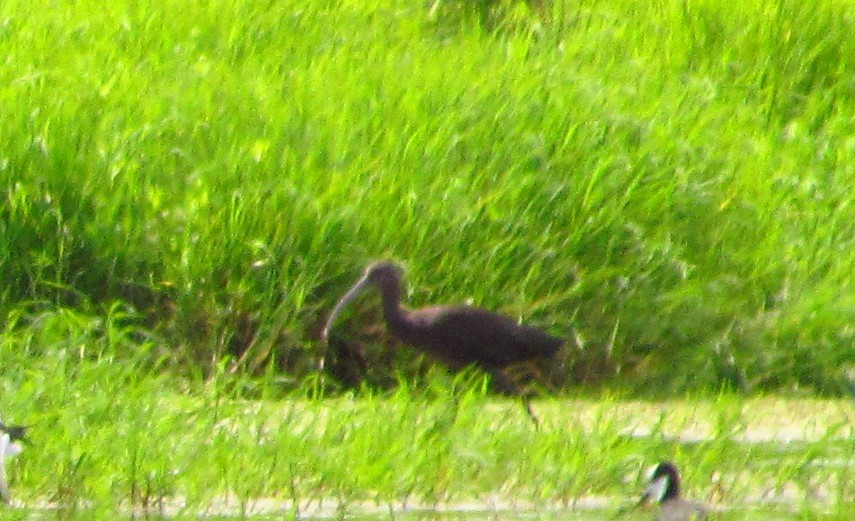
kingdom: Animalia
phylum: Chordata
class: Aves
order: Pelecaniformes
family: Threskiornithidae
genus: Plegadis
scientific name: Plegadis chihi
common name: White-faced ibis
